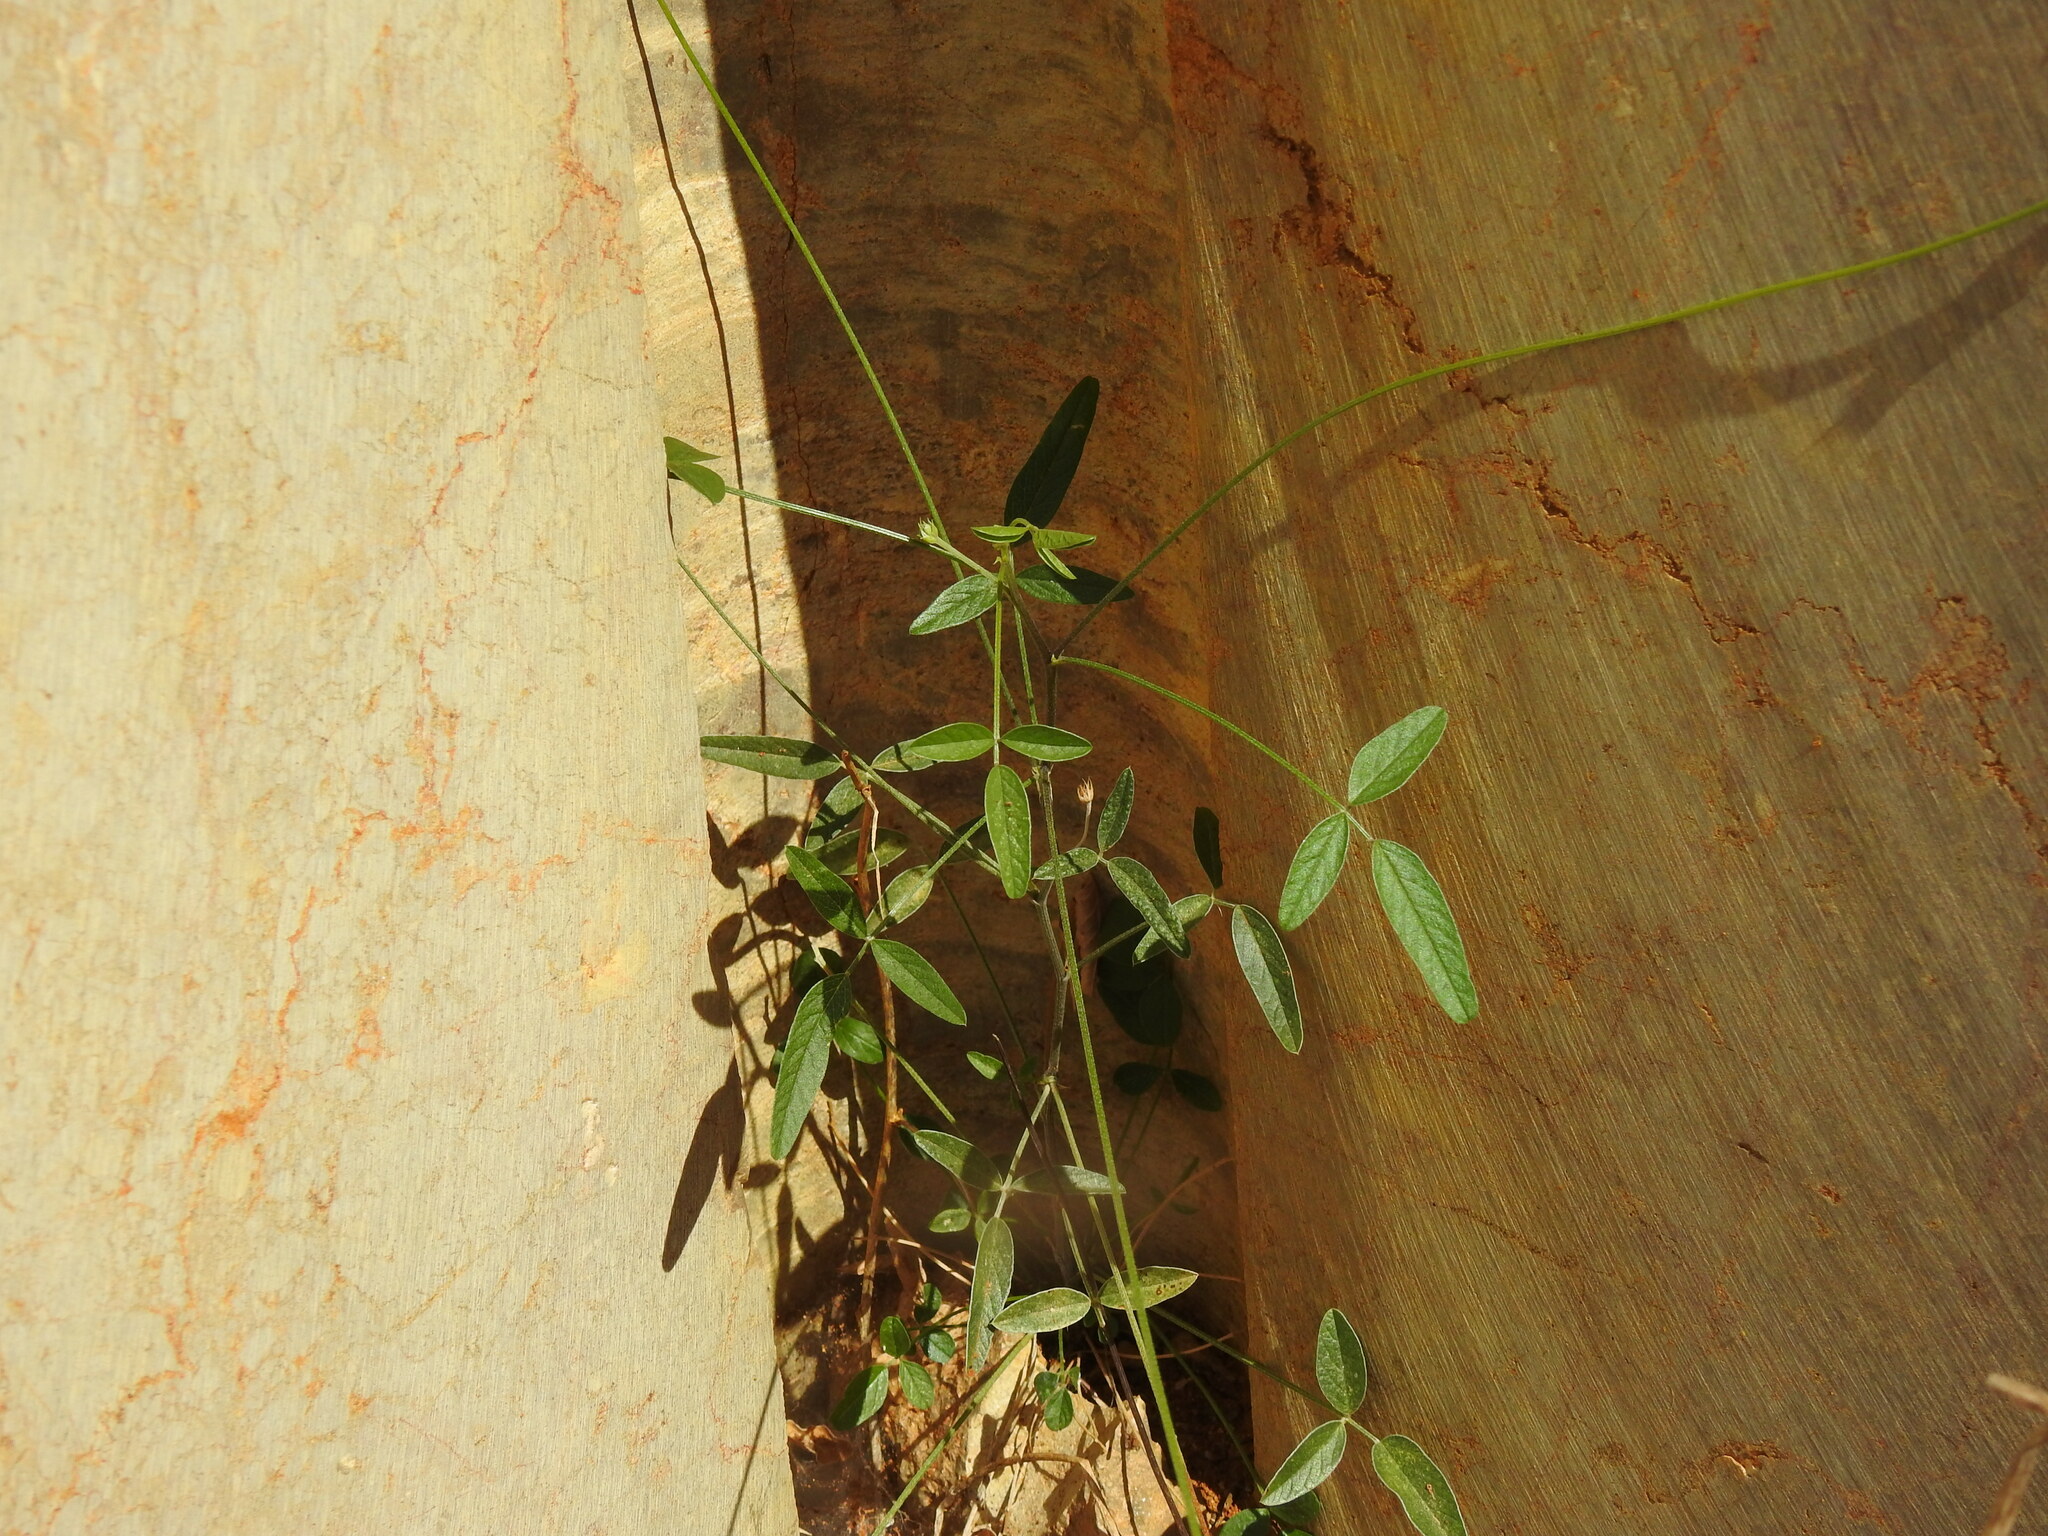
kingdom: Plantae
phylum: Tracheophyta
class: Magnoliopsida
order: Fabales
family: Fabaceae
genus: Bituminaria
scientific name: Bituminaria bituminosa
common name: Arabian pea
